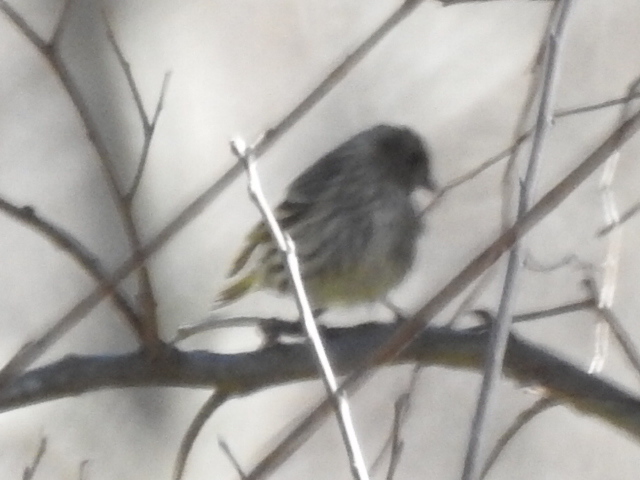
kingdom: Animalia
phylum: Chordata
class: Aves
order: Passeriformes
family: Fringillidae
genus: Spinus
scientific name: Spinus pinus
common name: Pine siskin
